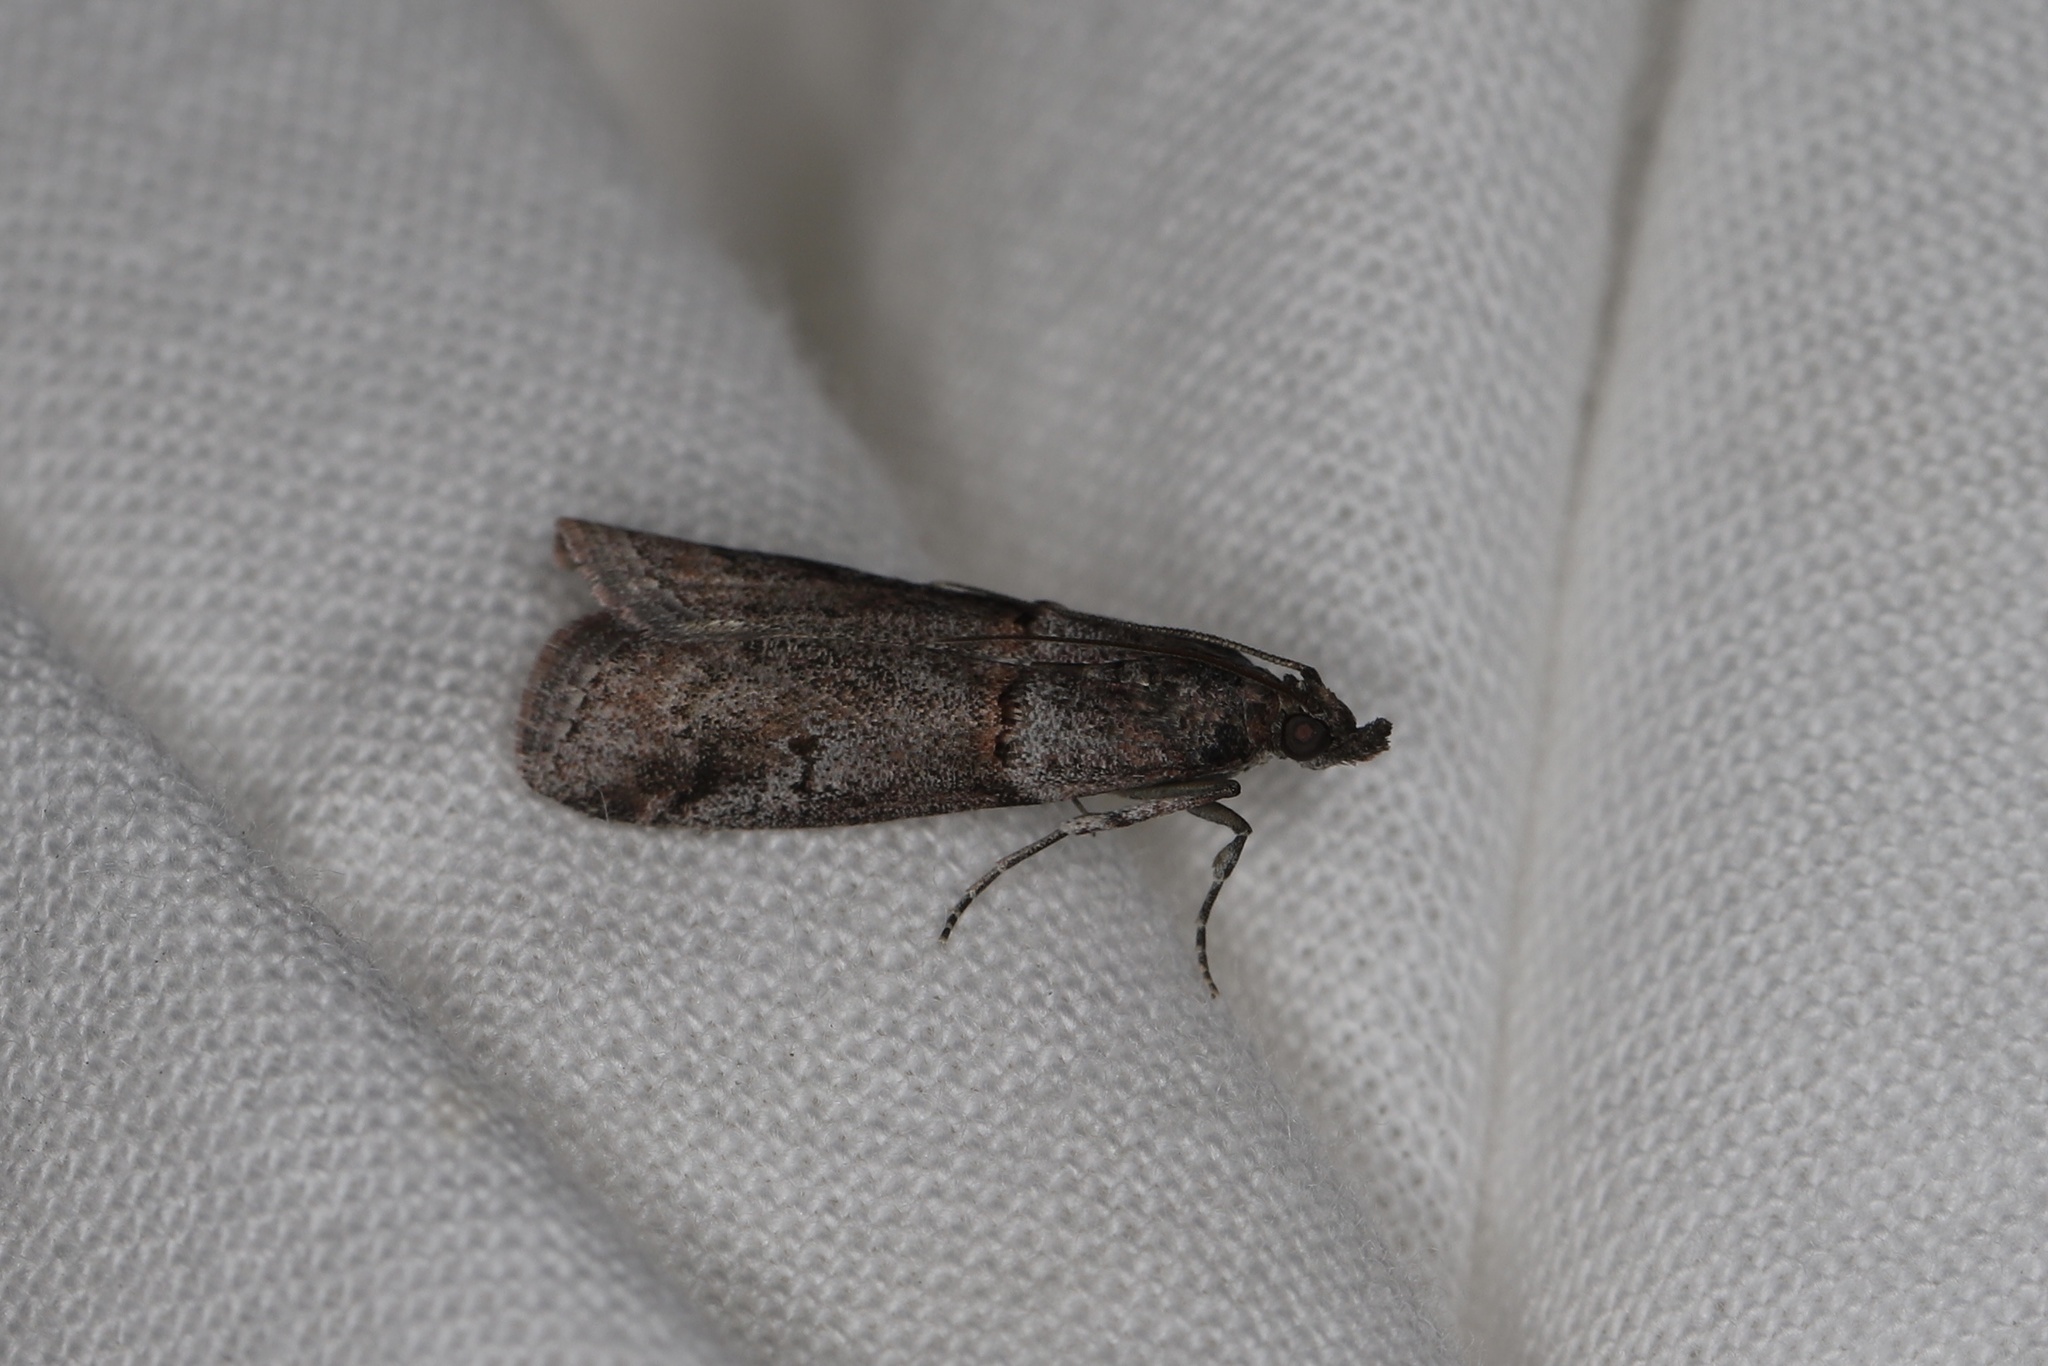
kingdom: Animalia
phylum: Arthropoda
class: Insecta
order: Lepidoptera
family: Pyralidae
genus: Acrobasis
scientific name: Acrobasis obliqua
